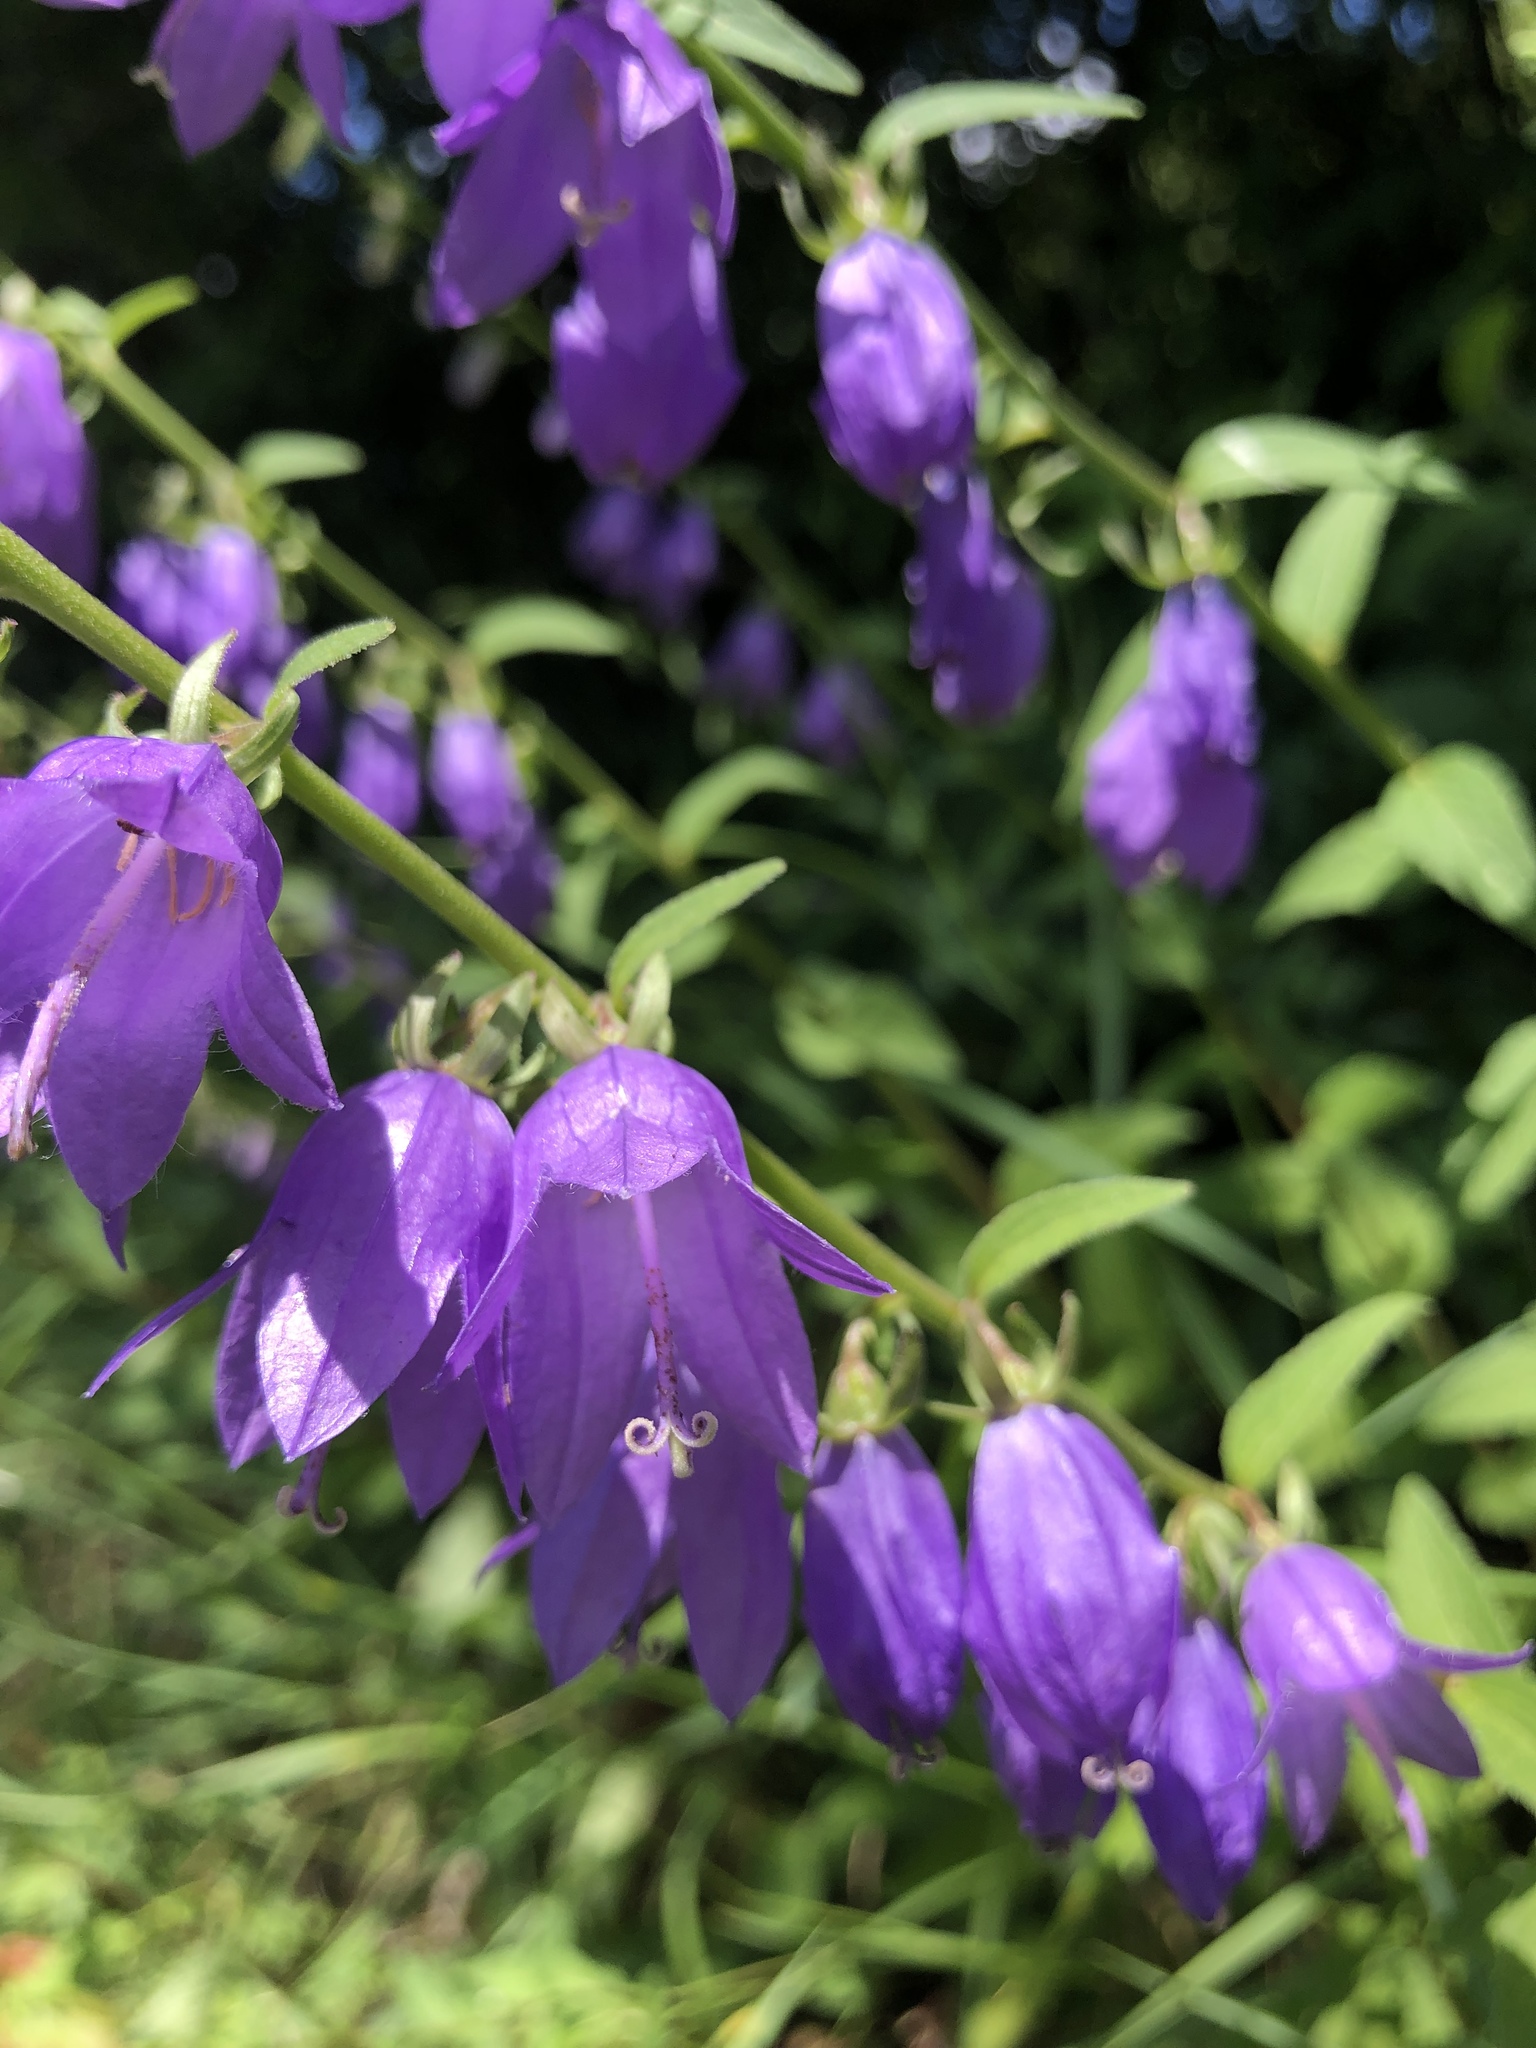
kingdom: Plantae
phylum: Tracheophyta
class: Magnoliopsida
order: Asterales
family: Campanulaceae
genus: Campanula
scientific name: Campanula rapunculoides
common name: Creeping bellflower
